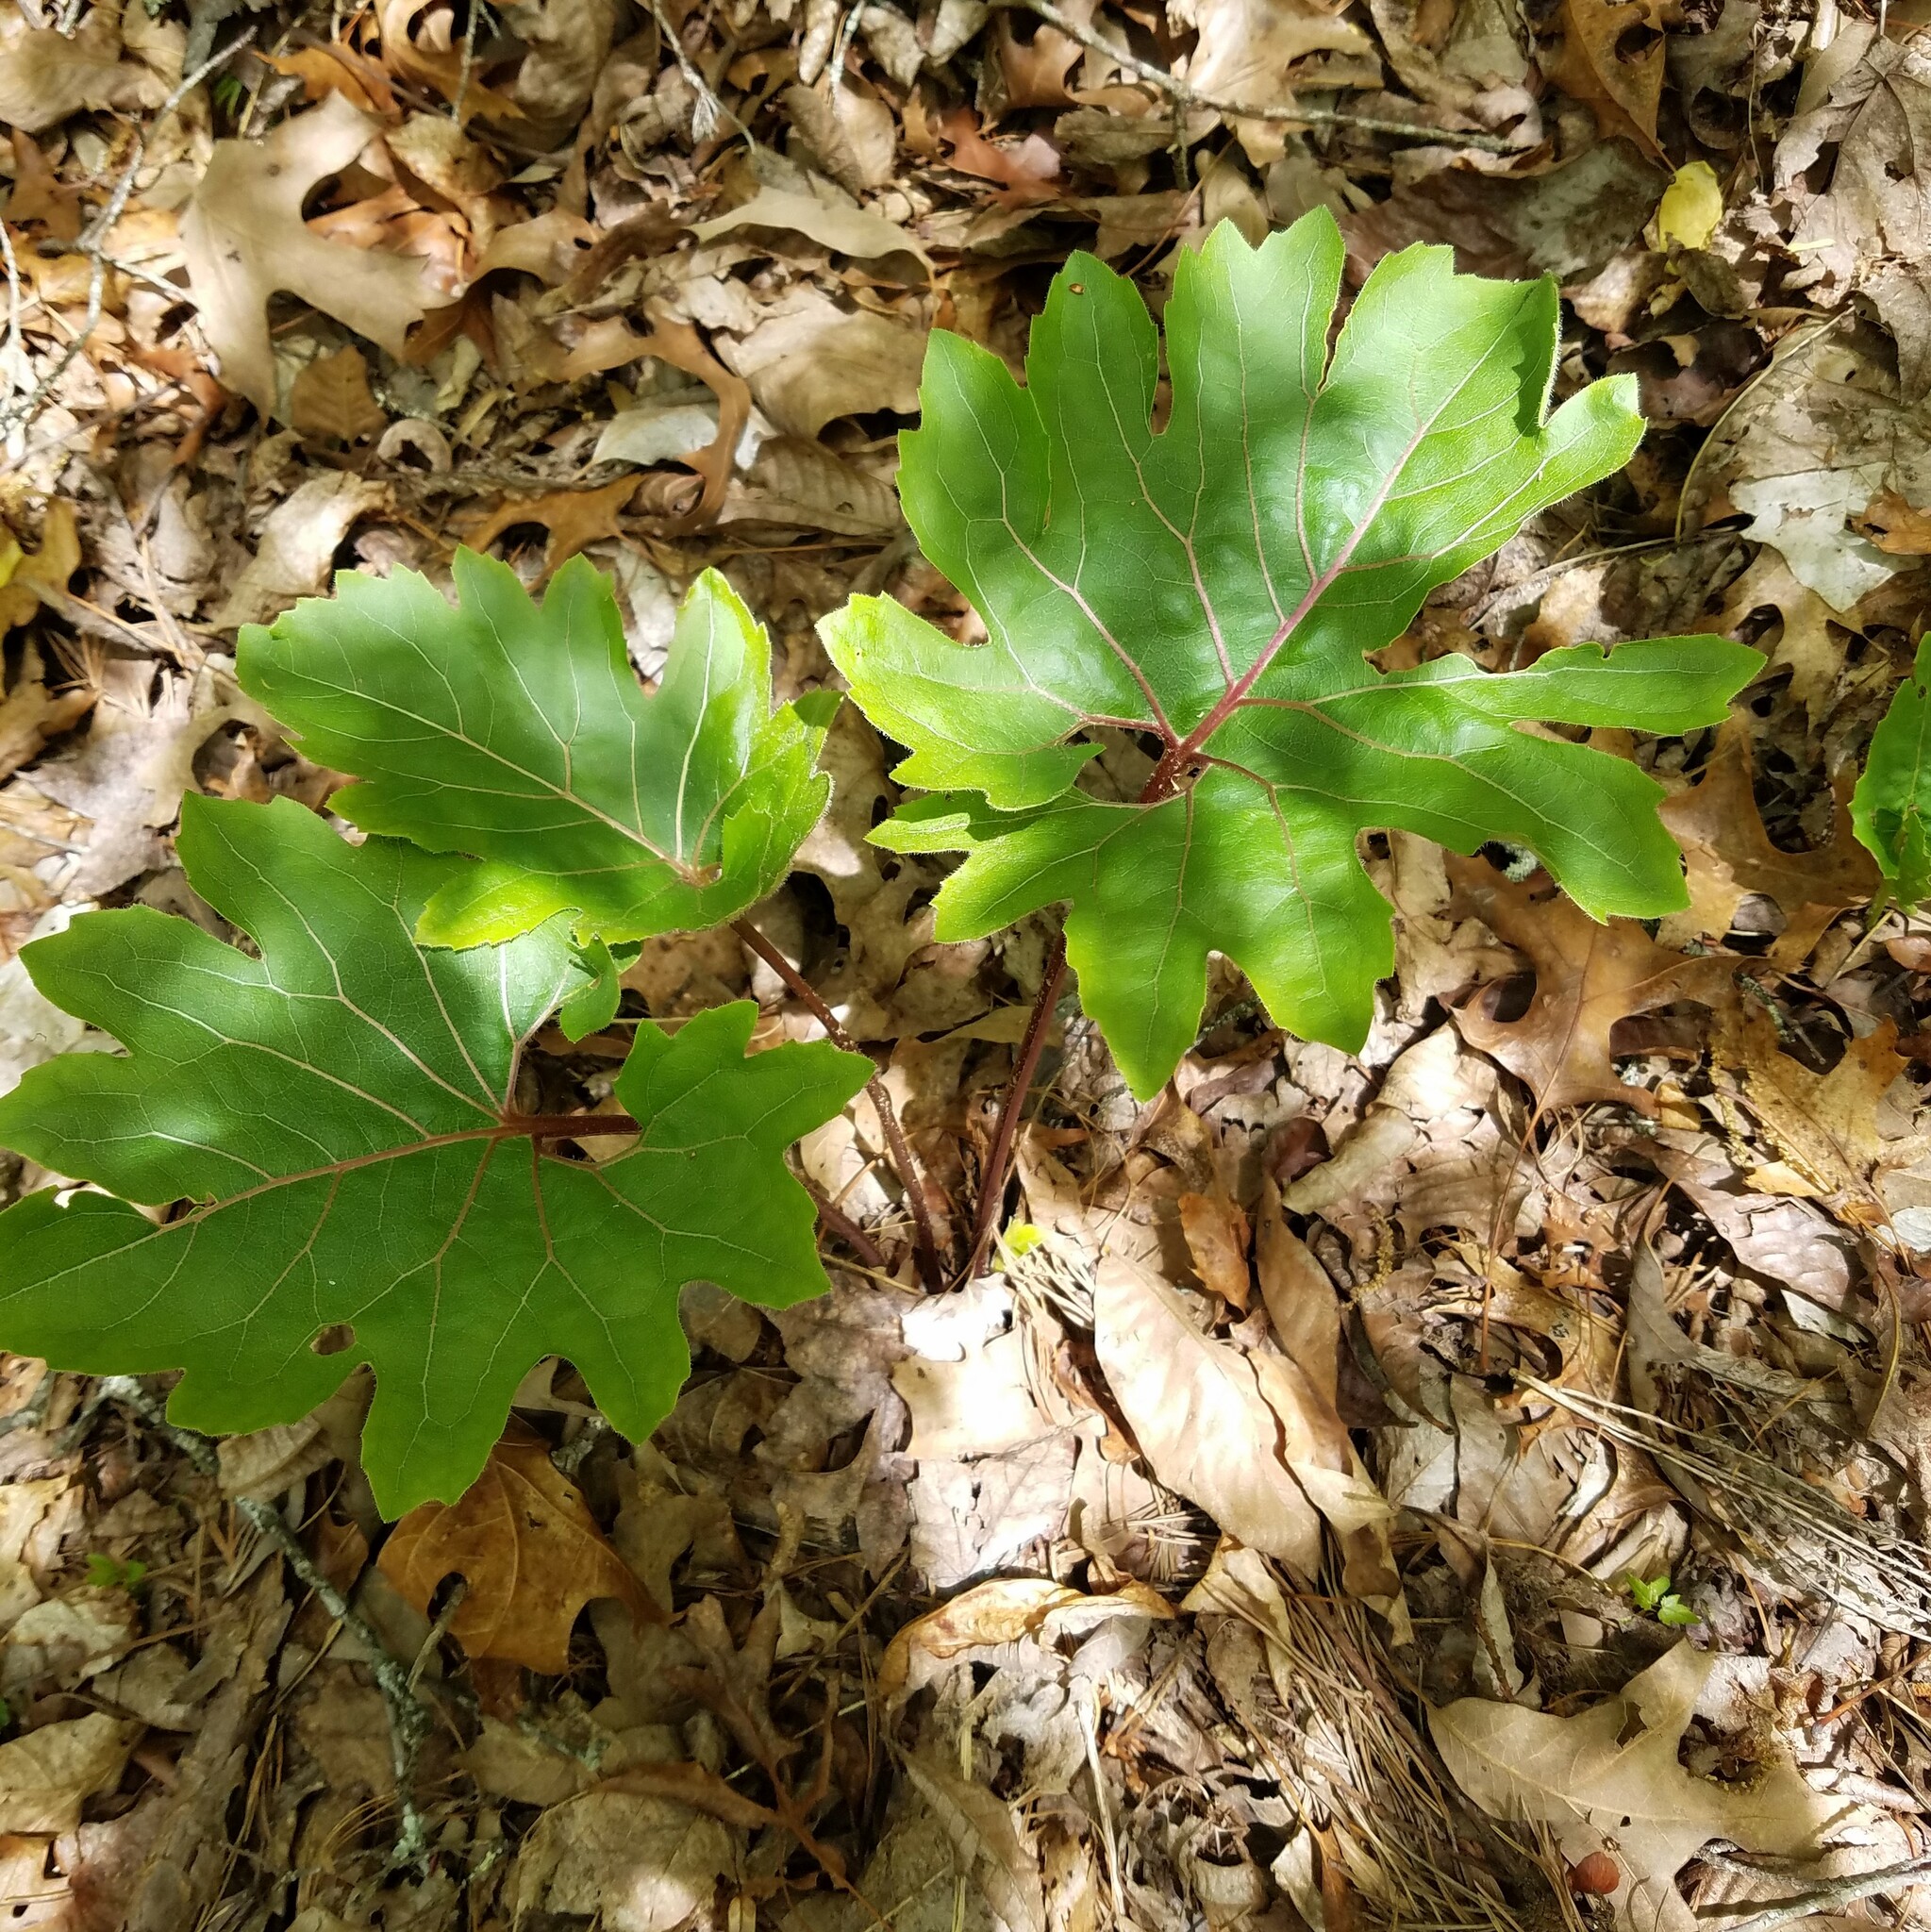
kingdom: Plantae
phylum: Tracheophyta
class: Magnoliopsida
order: Asterales
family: Asteraceae
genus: Silphium
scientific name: Silphium compositum
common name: Lesser basal-leaf rosinweed
